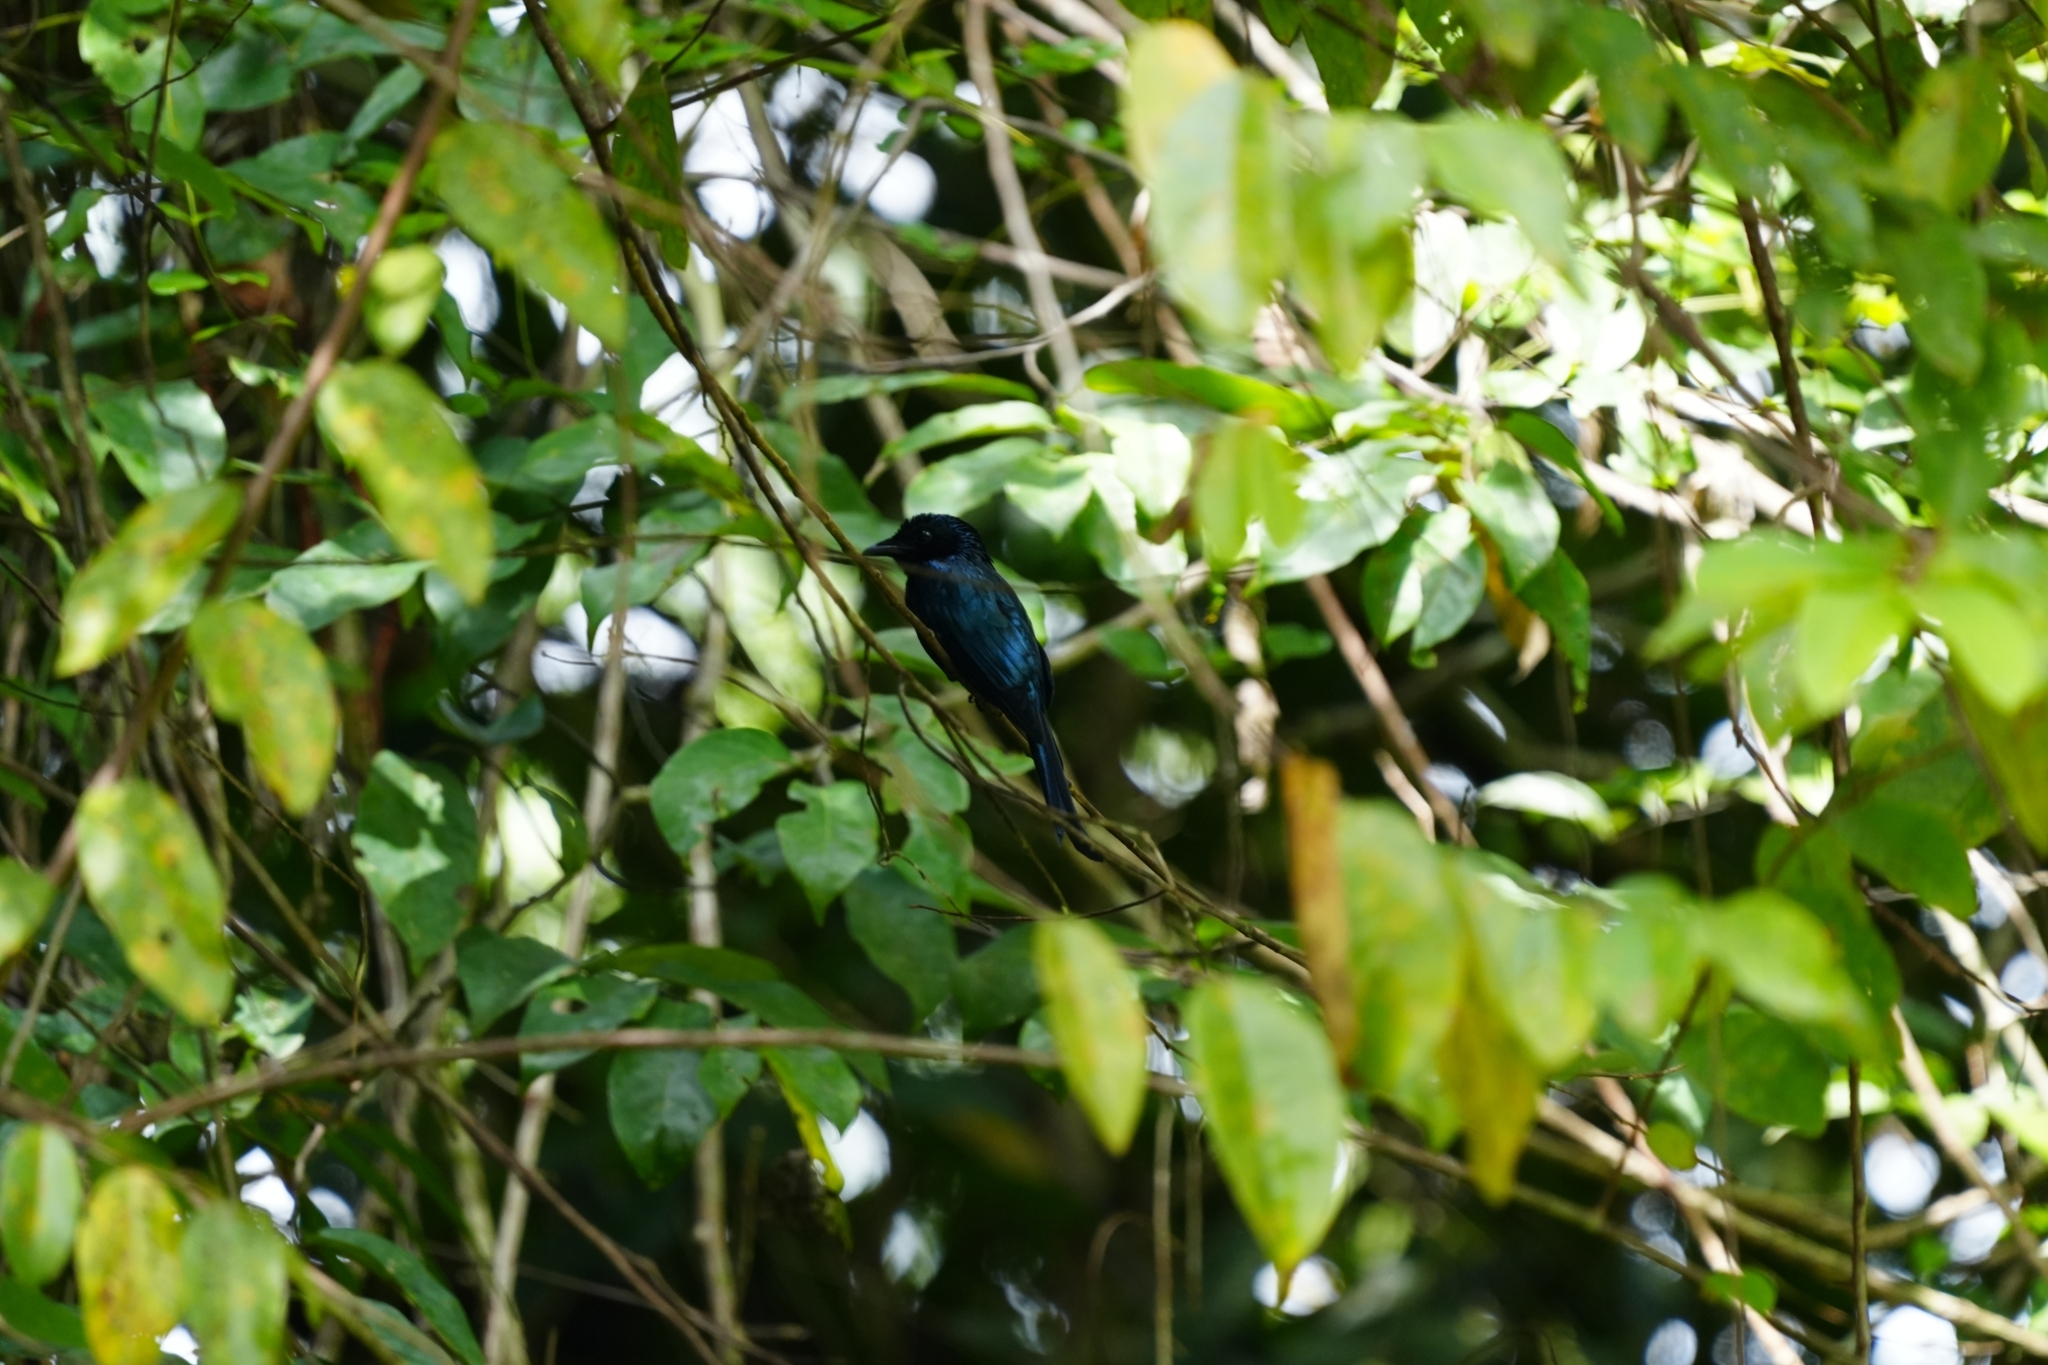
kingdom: Animalia
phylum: Chordata
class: Aves
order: Passeriformes
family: Dicruridae
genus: Dicrurus
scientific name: Dicrurus aeneus
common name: Bronzed drongo
